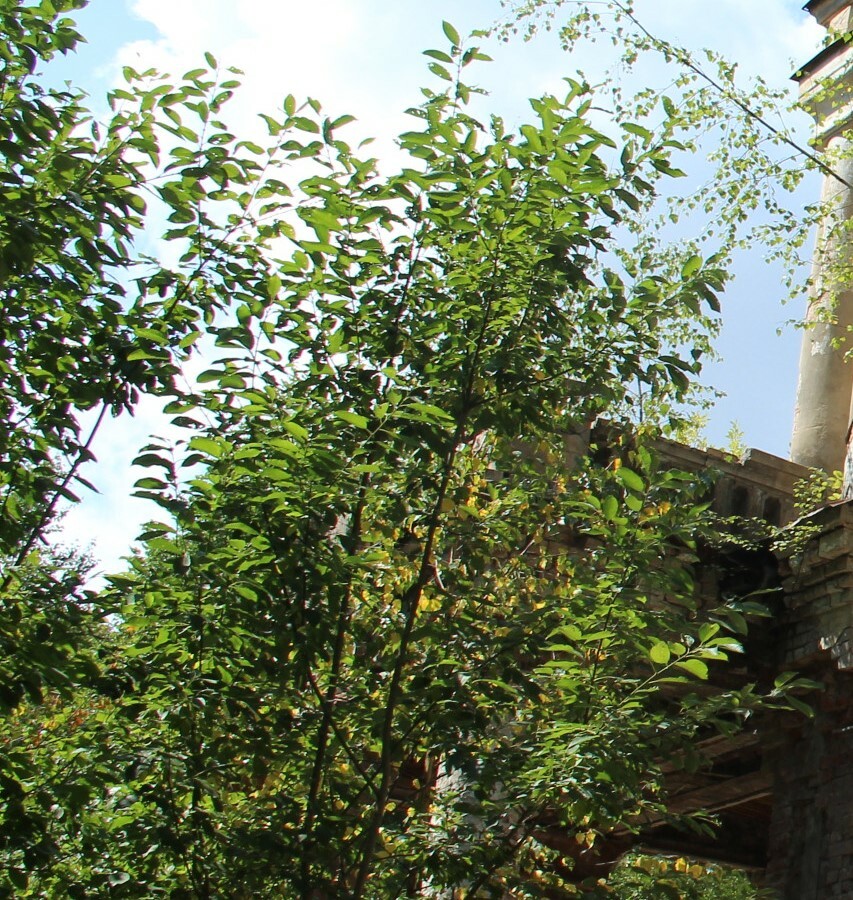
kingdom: Plantae
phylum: Tracheophyta
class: Magnoliopsida
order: Malpighiales
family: Salicaceae
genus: Salix
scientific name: Salix caprea
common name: Goat willow
